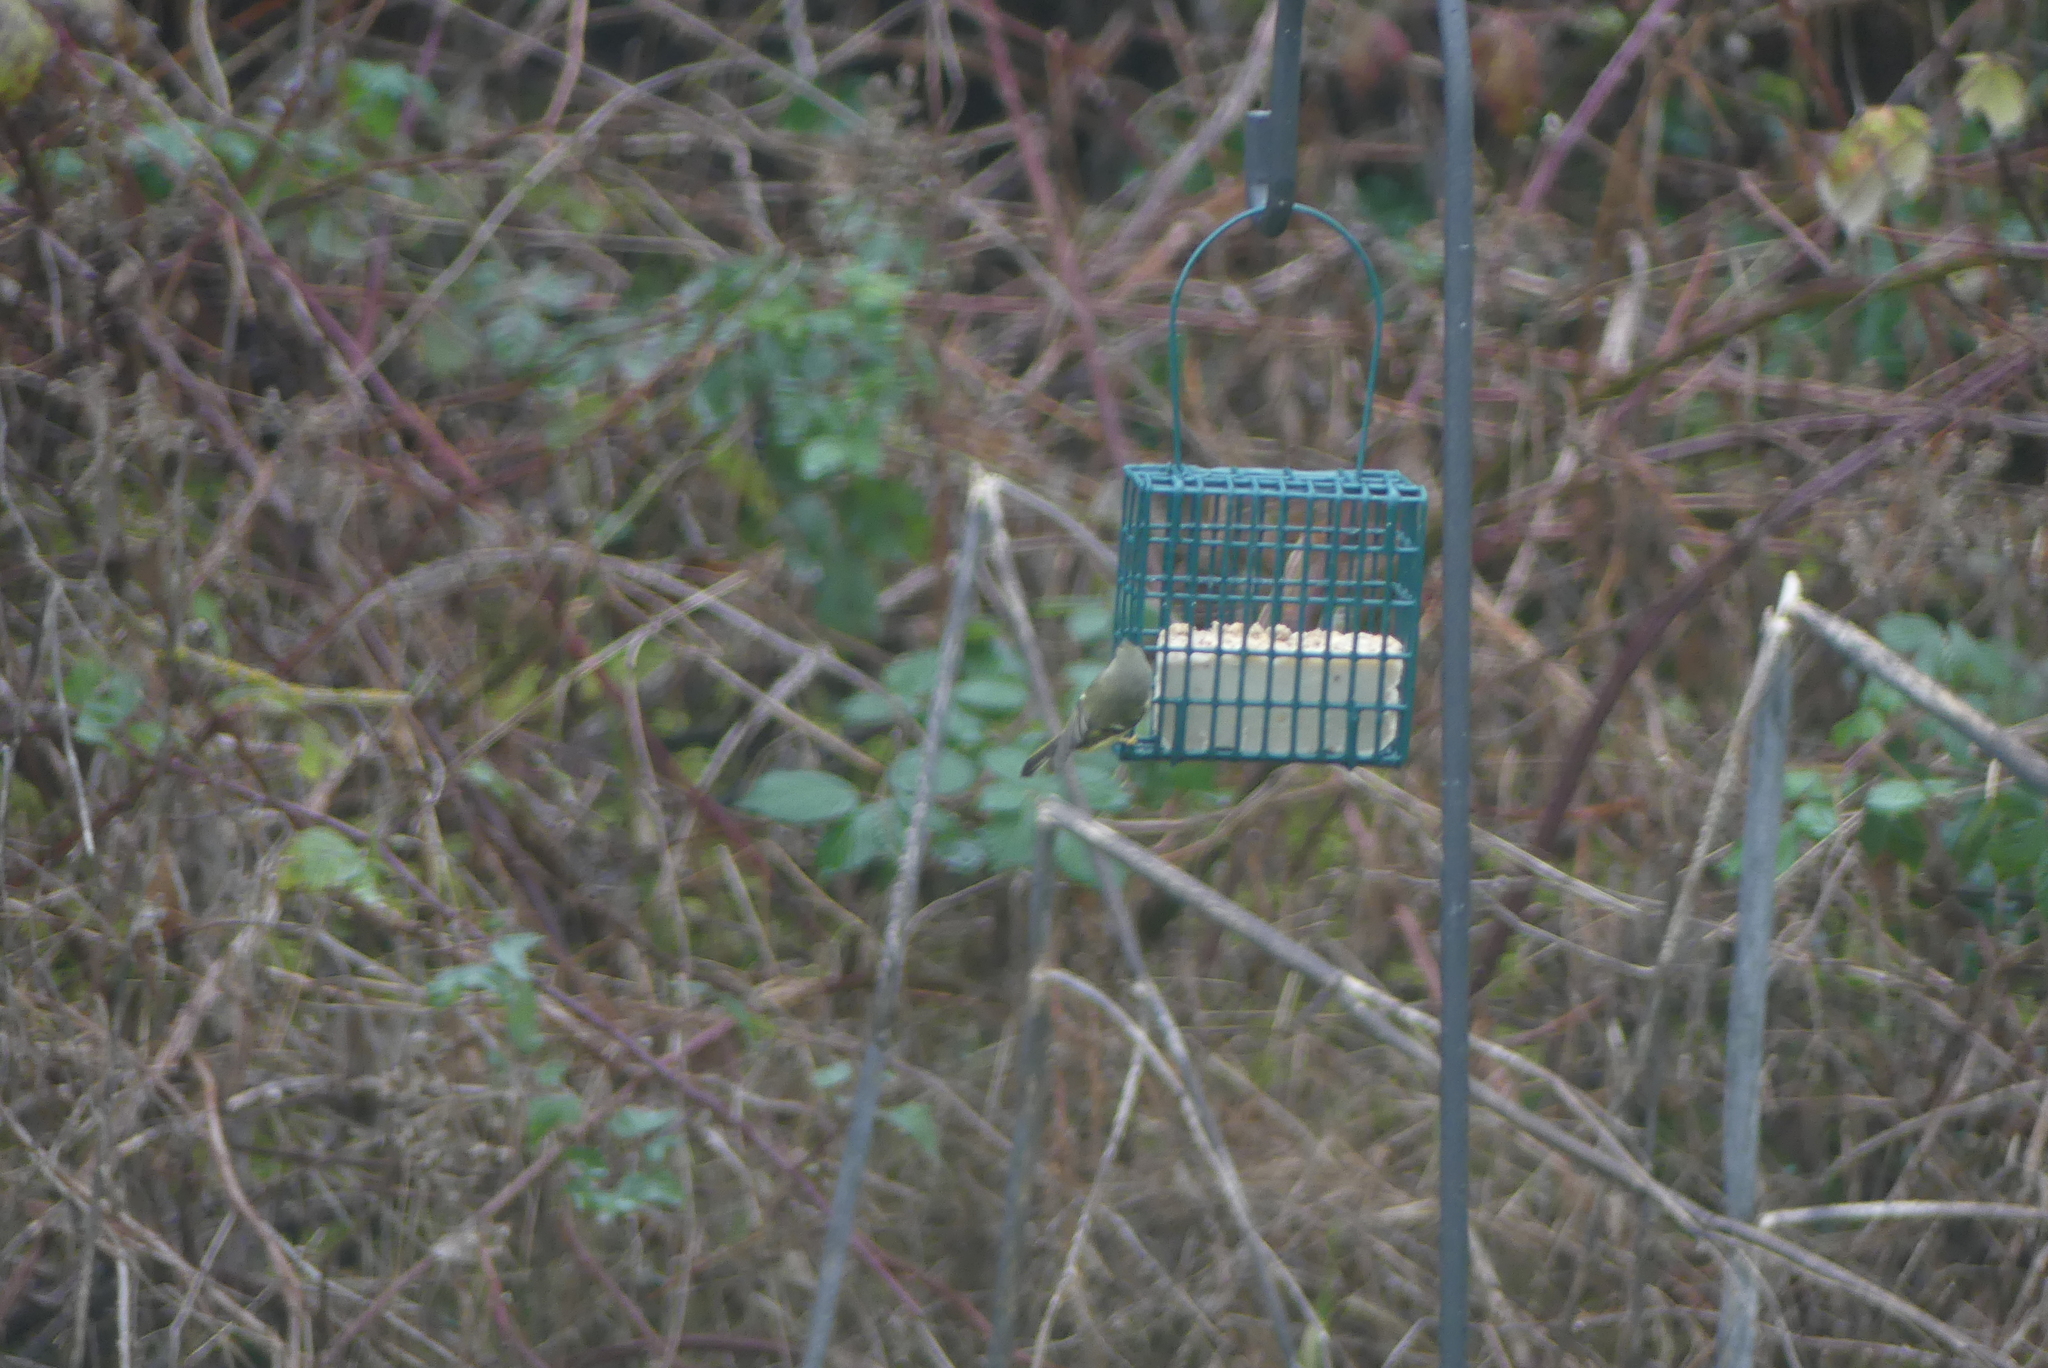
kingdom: Animalia
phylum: Chordata
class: Aves
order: Passeriformes
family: Regulidae
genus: Regulus
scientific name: Regulus calendula
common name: Ruby-crowned kinglet
